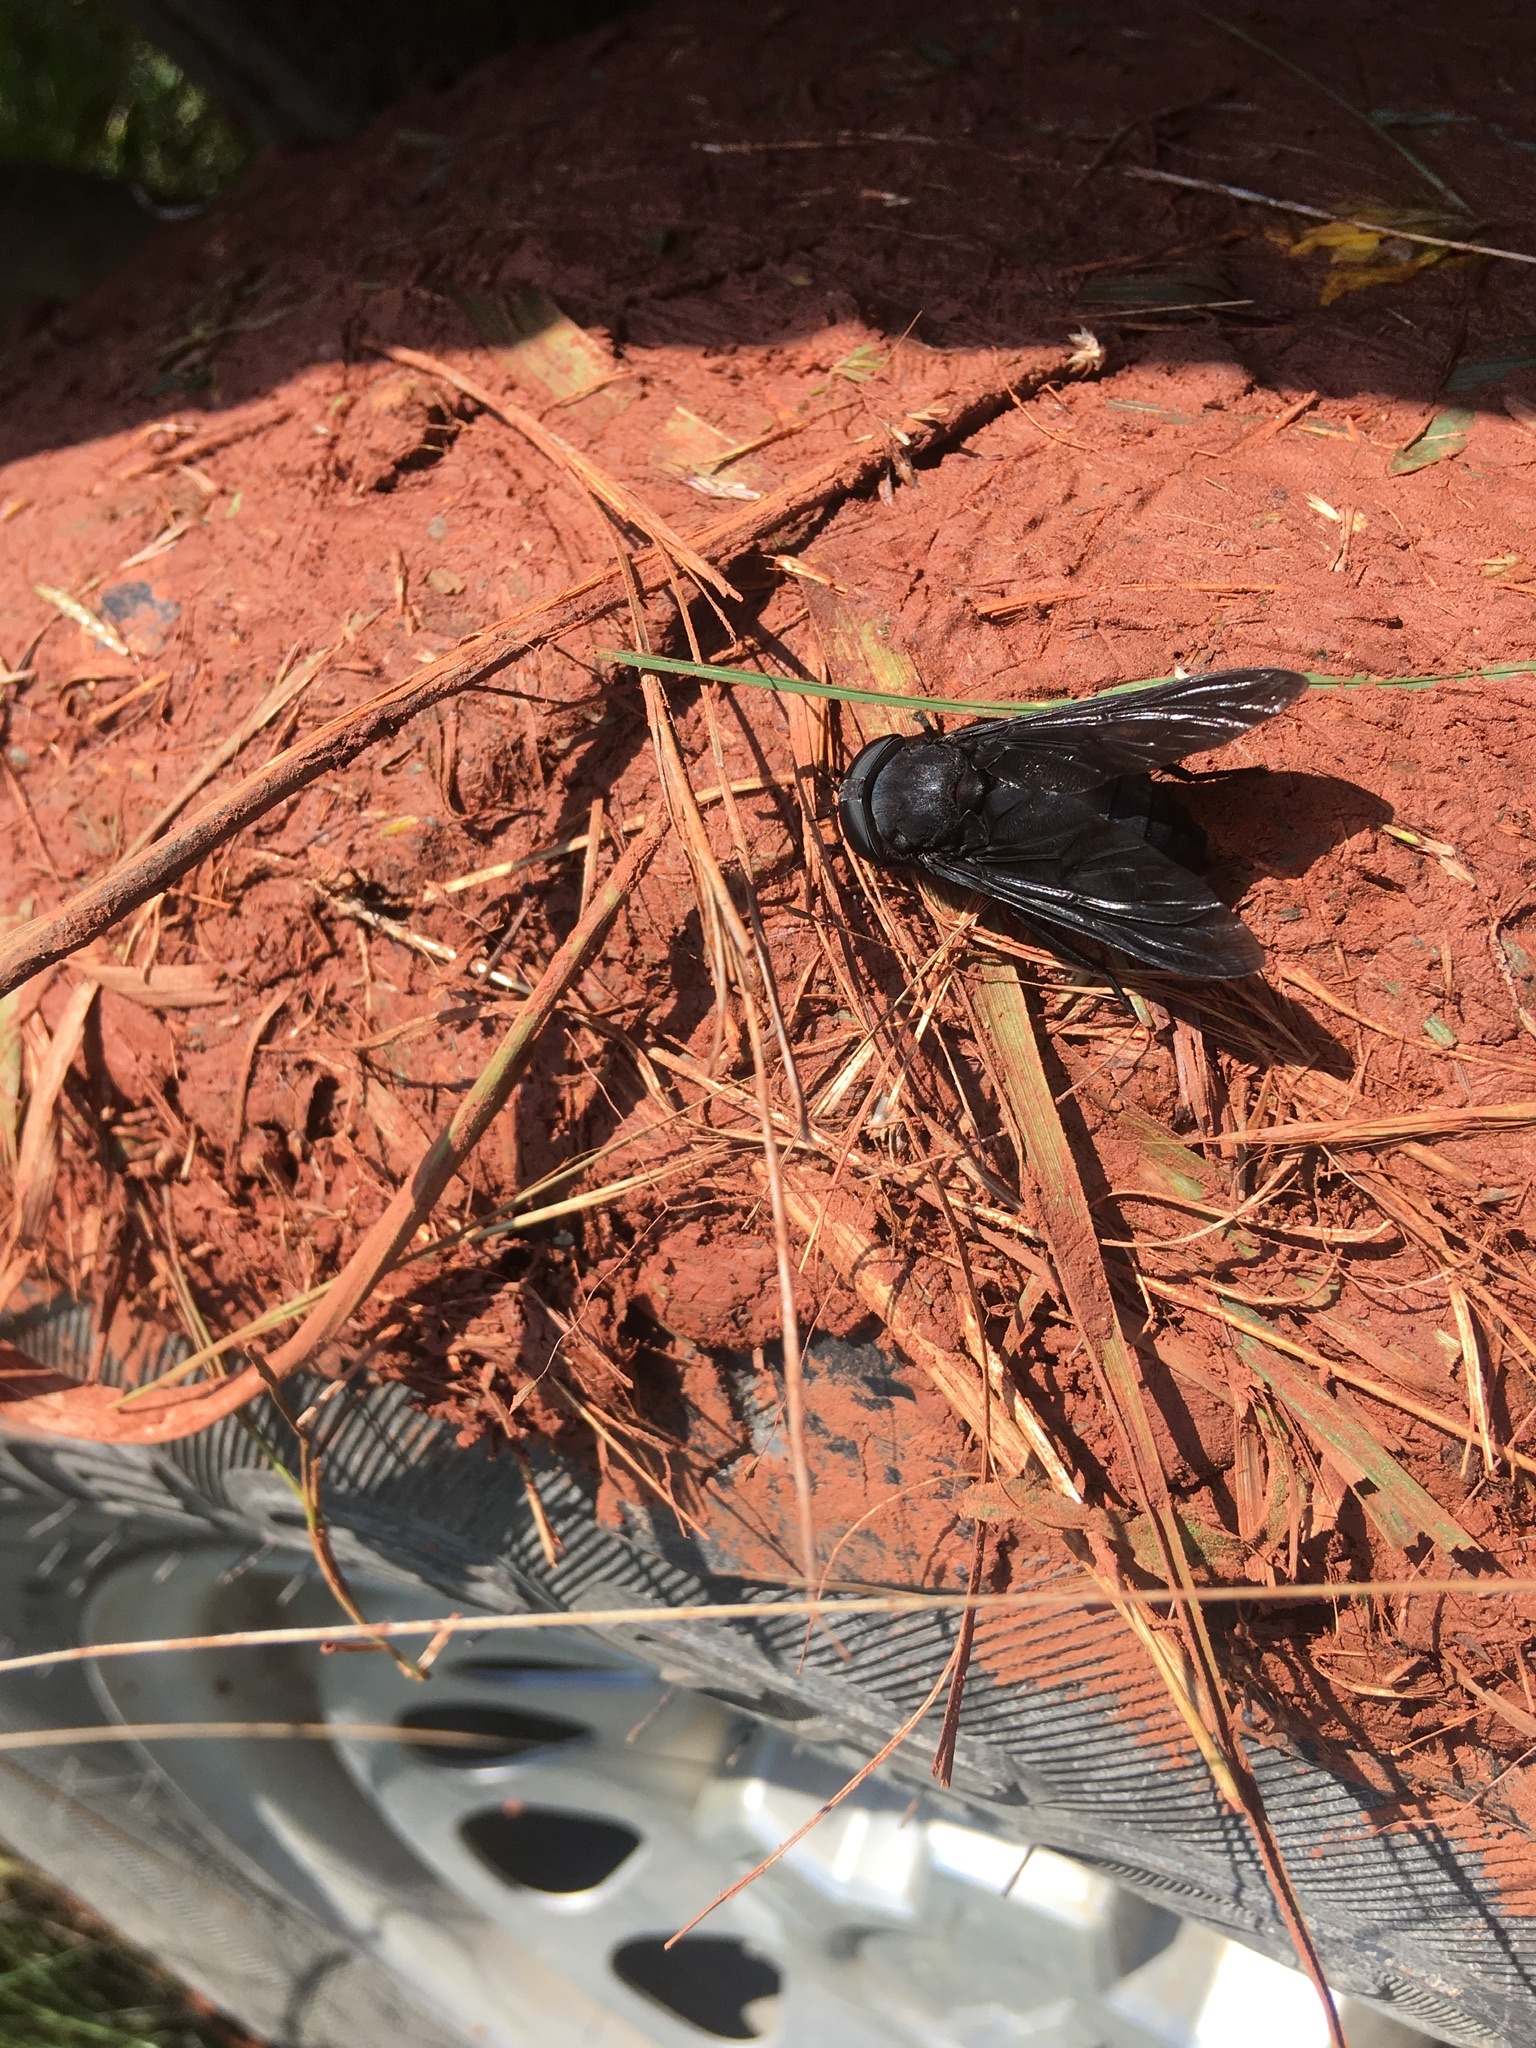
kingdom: Animalia
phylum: Arthropoda
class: Insecta
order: Diptera
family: Tabanidae
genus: Tabanus
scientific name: Tabanus atratus
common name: Black horse fly
